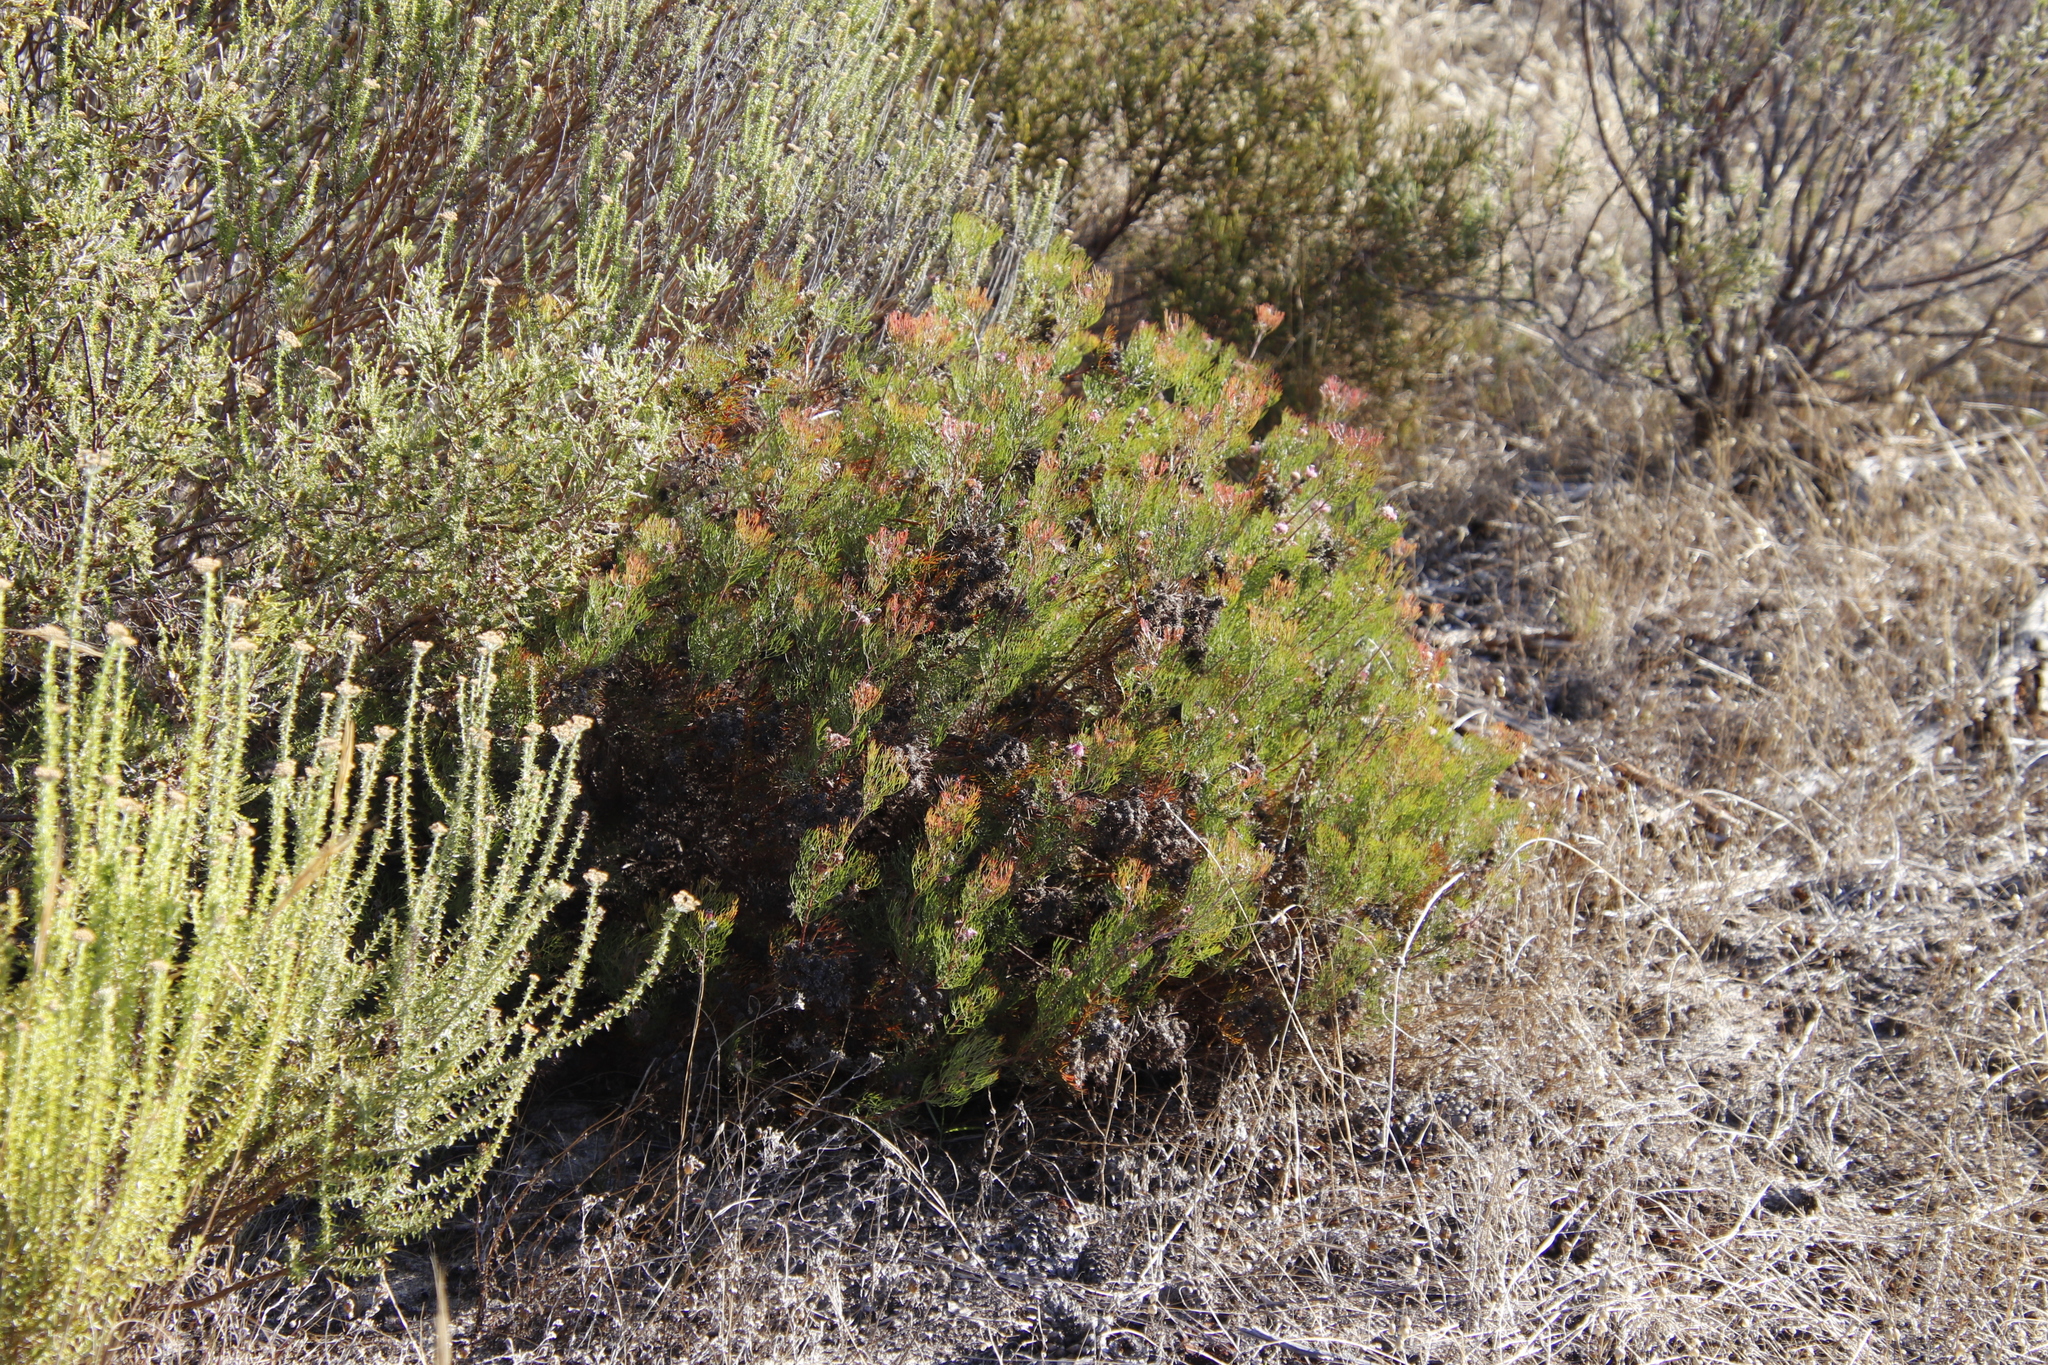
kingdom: Plantae
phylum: Tracheophyta
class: Magnoliopsida
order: Proteales
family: Proteaceae
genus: Serruria
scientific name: Serruria fasciflora
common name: Common pin spiderhead
